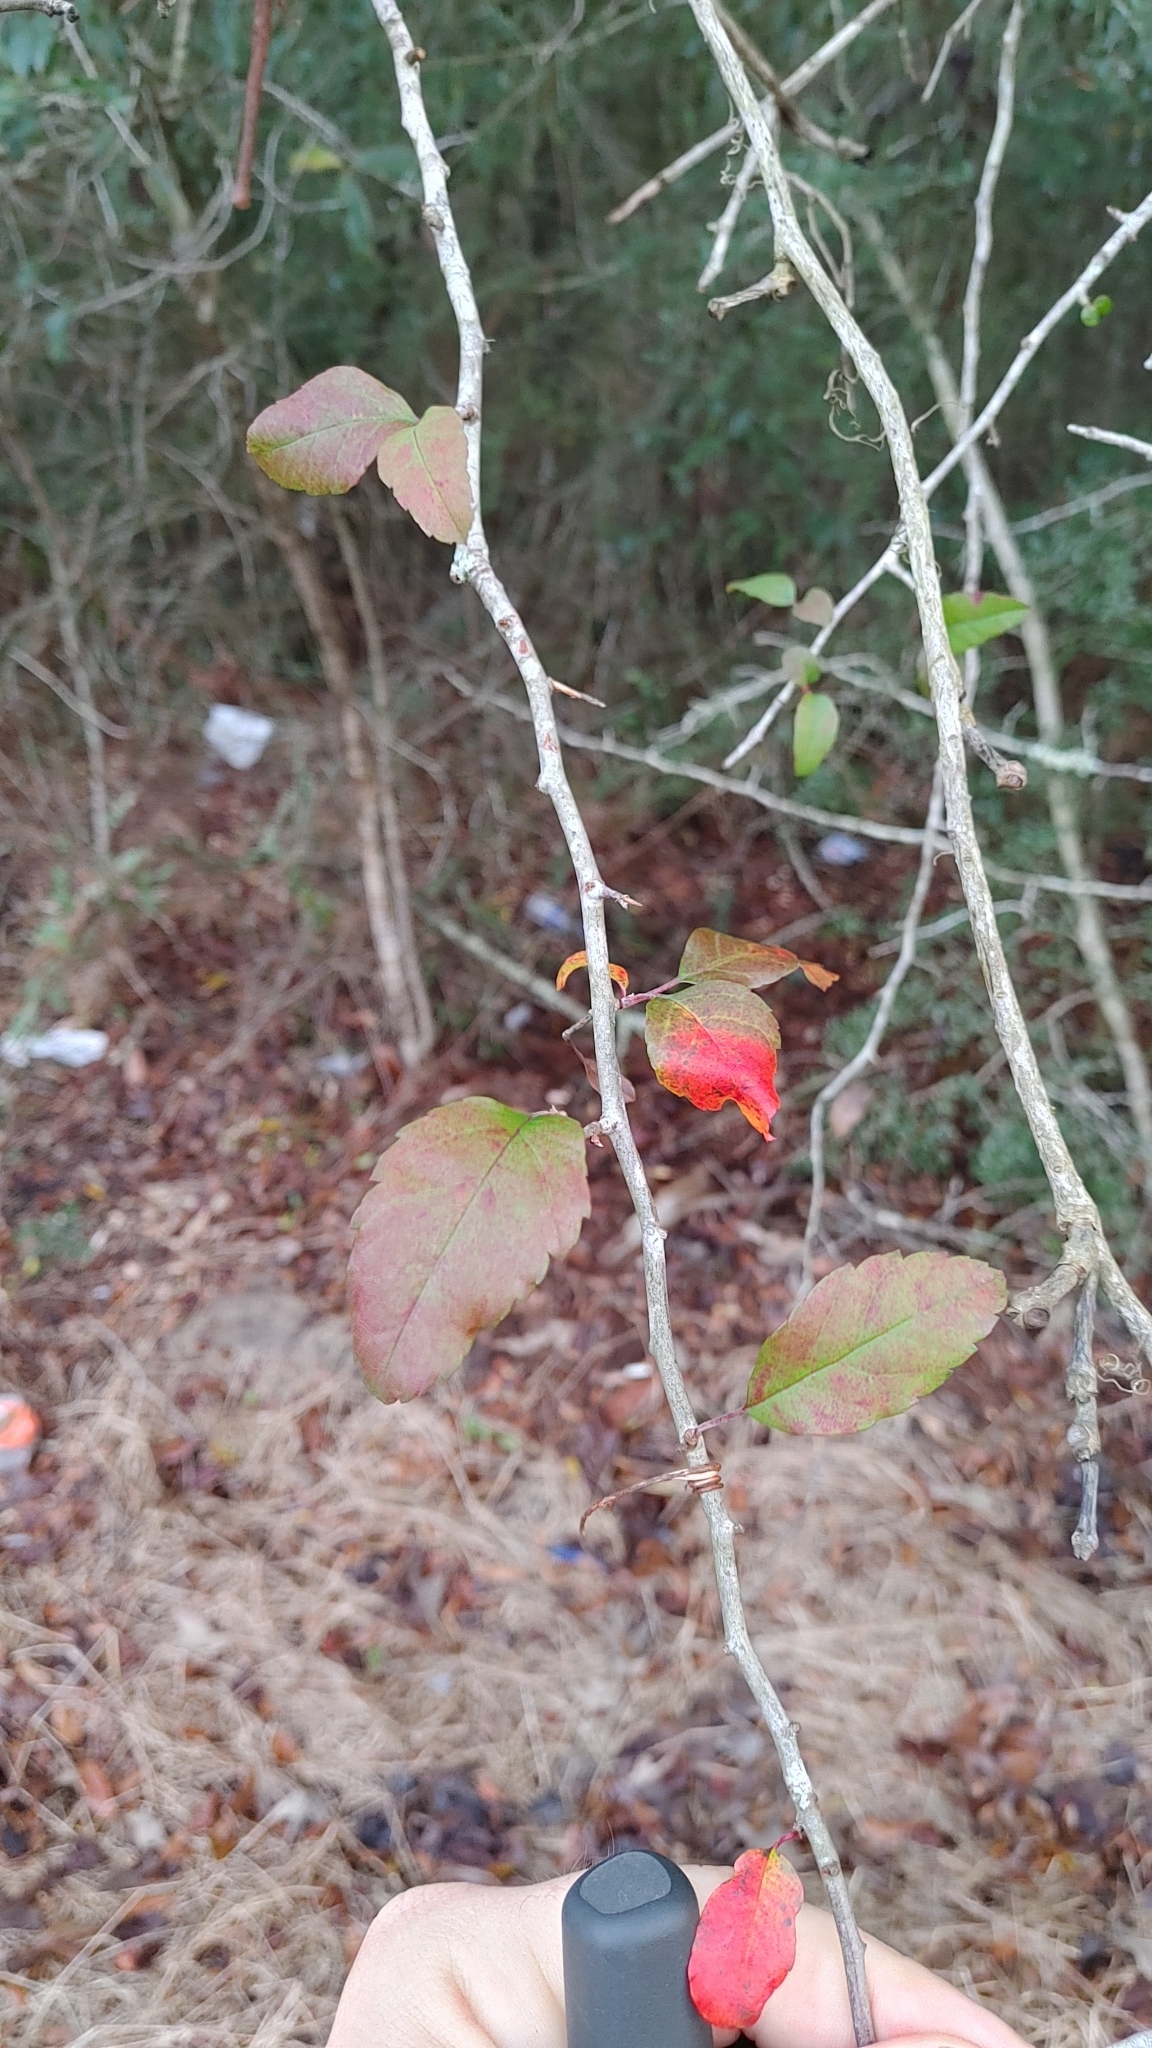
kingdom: Plantae
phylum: Tracheophyta
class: Magnoliopsida
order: Rosales
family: Rosaceae
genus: Malus
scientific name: Malus angustifolia
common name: Southern crab apple
